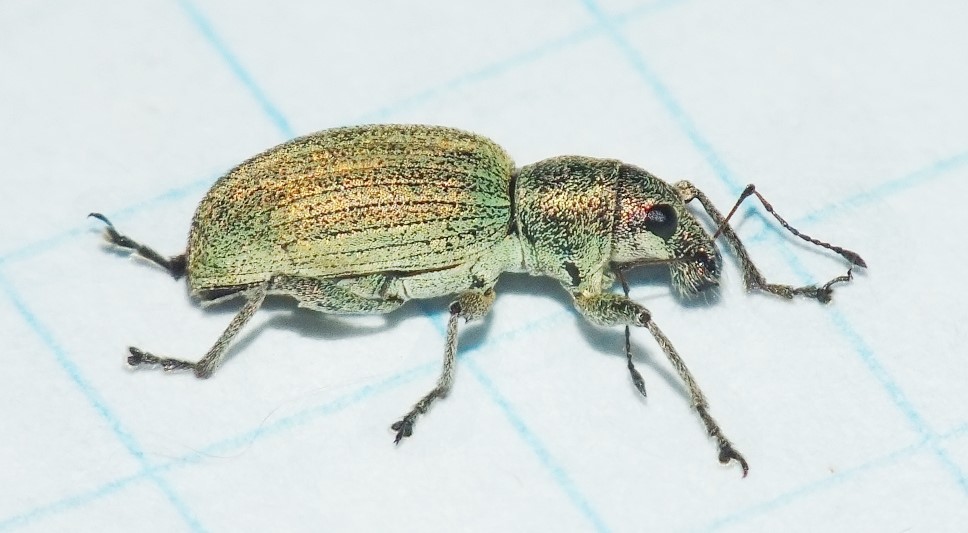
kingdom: Animalia
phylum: Arthropoda
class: Insecta
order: Coleoptera
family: Curculionidae
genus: Eusomus
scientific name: Eusomus ovulum
